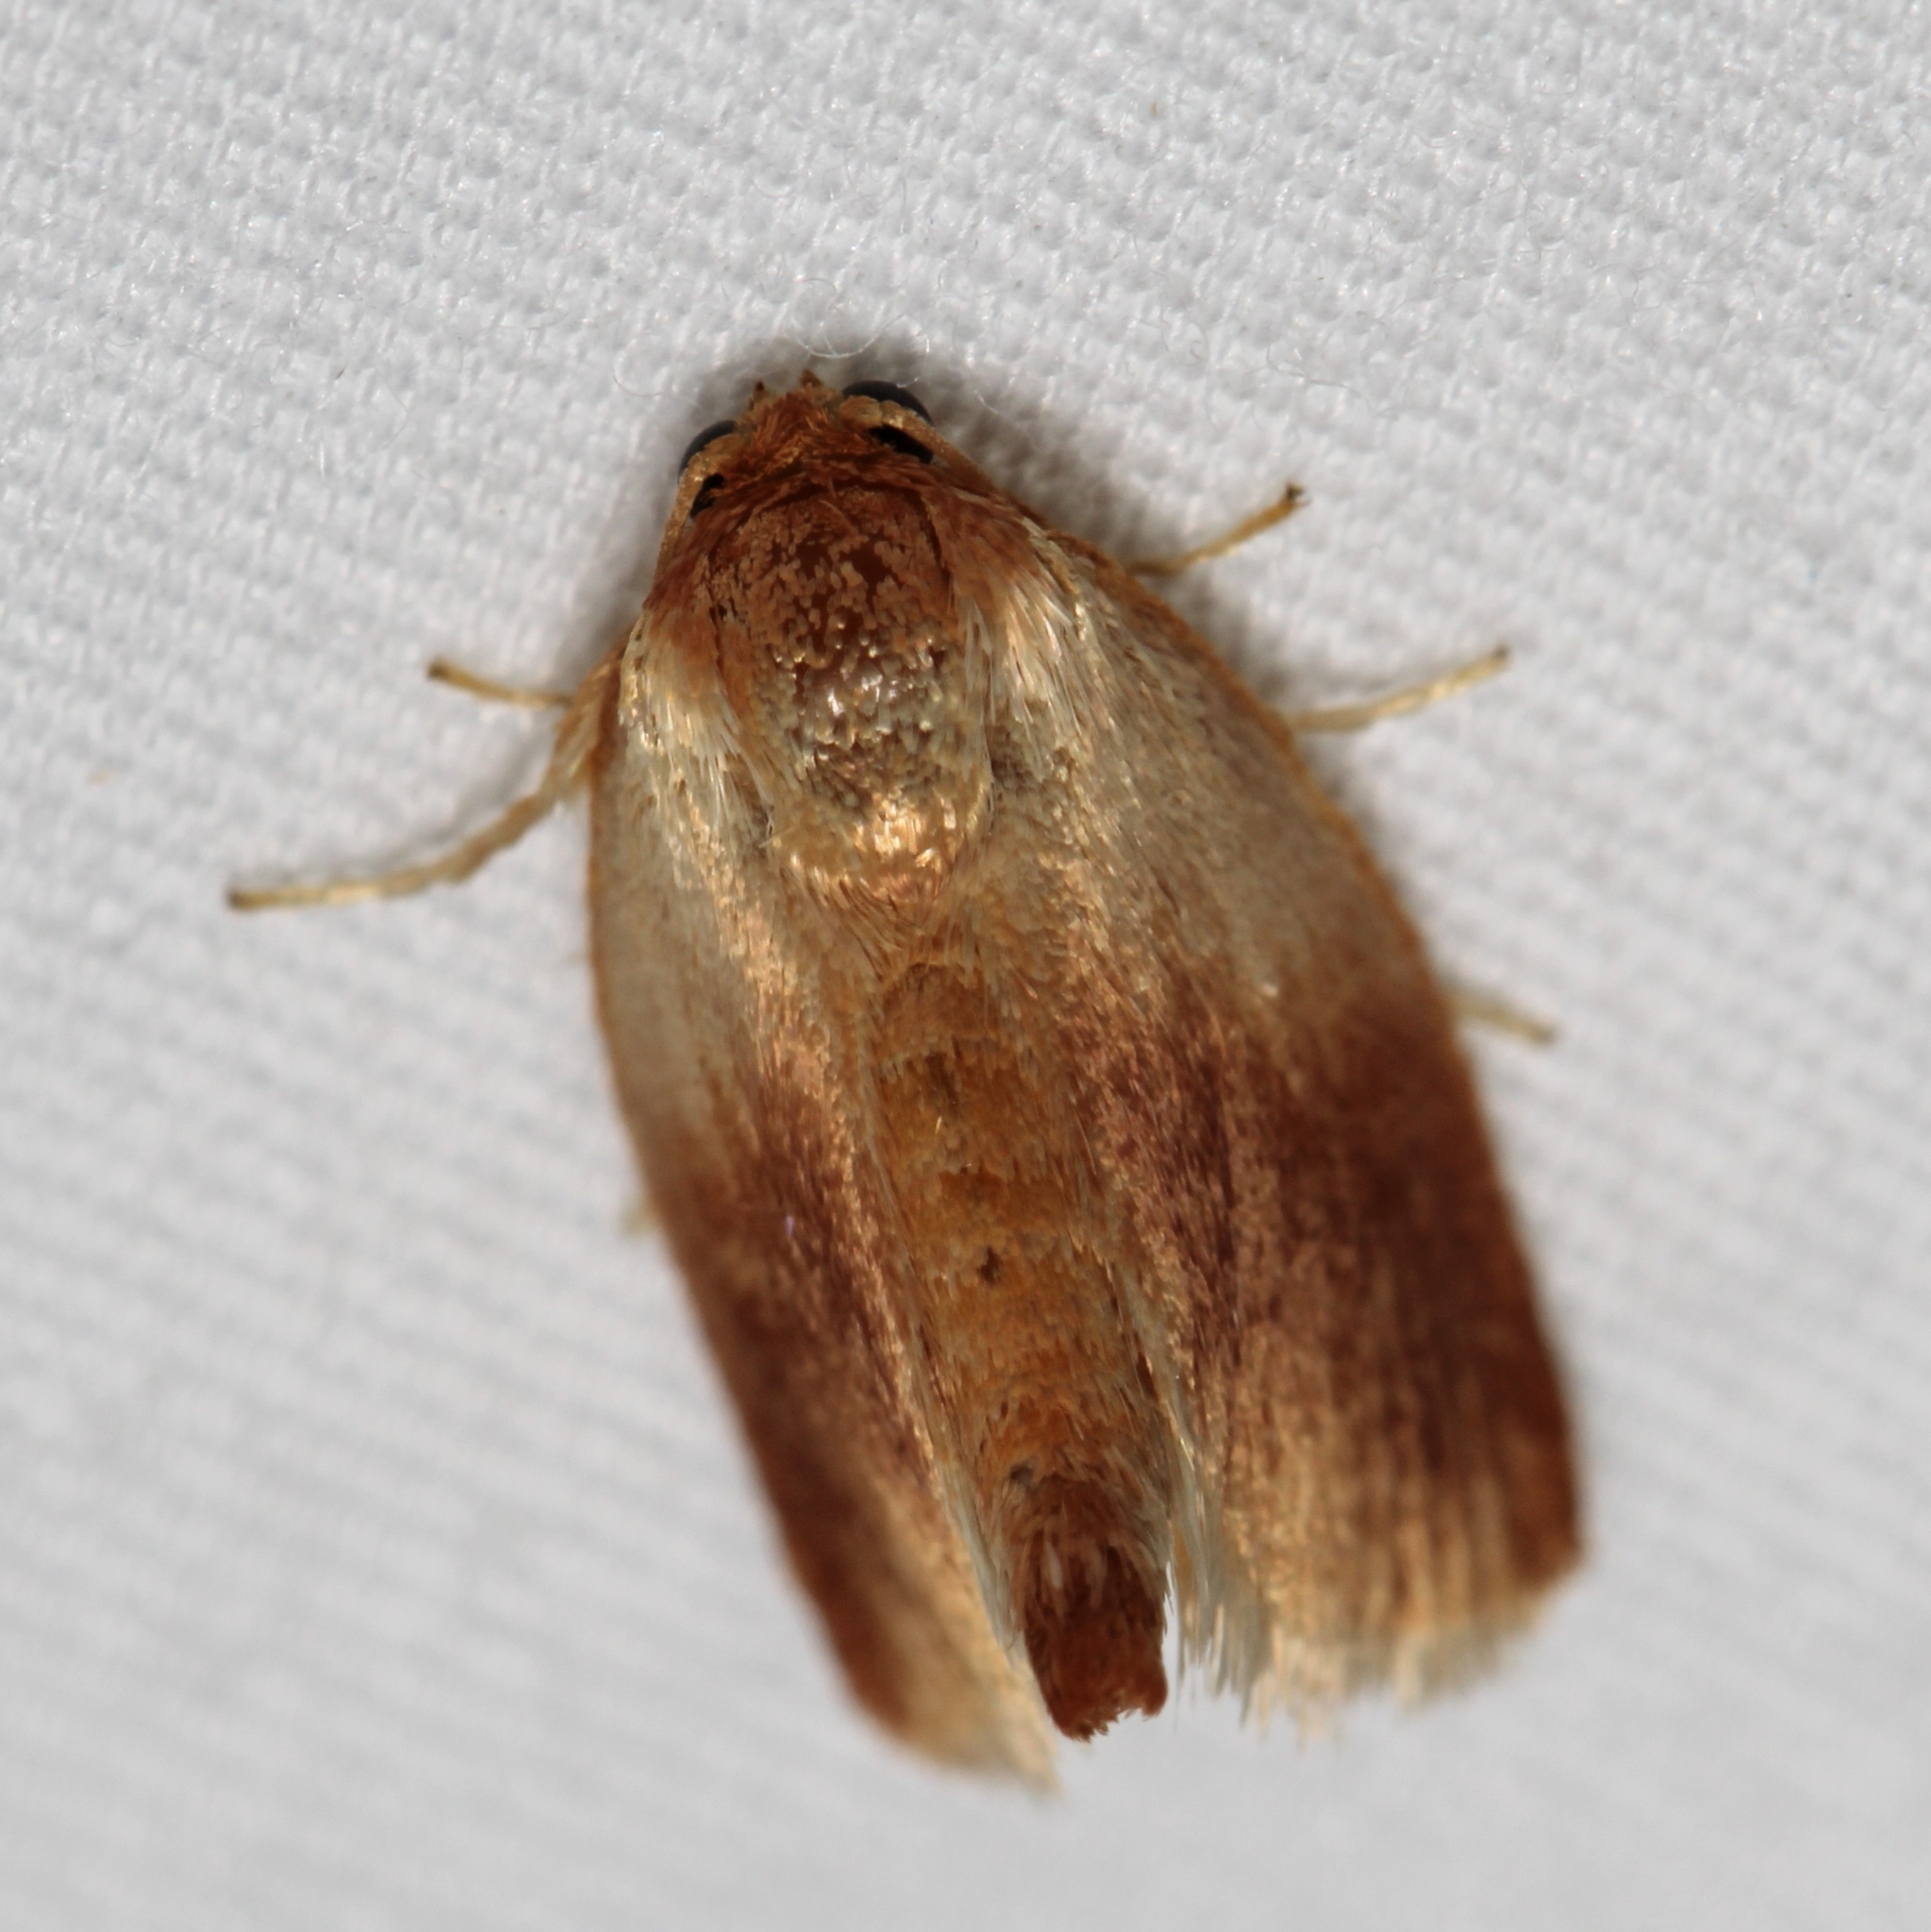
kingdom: Animalia
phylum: Arthropoda
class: Insecta
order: Lepidoptera
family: Limacodidae
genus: Tortricidia
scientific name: Tortricidia testacea
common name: Early button slug moth
